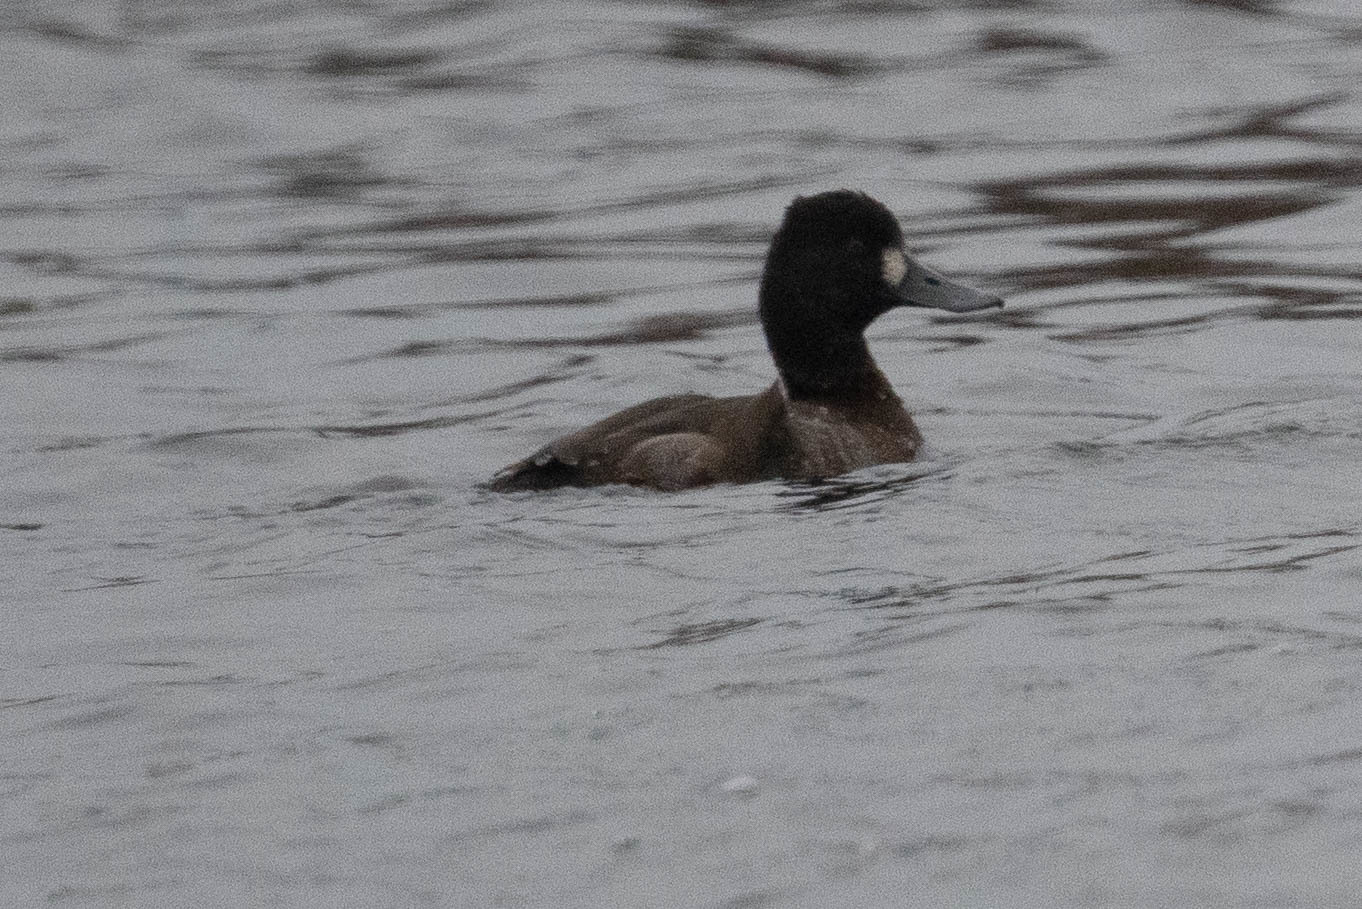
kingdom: Animalia
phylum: Chordata
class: Aves
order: Anseriformes
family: Anatidae
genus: Aythya
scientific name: Aythya affinis
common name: Lesser scaup
